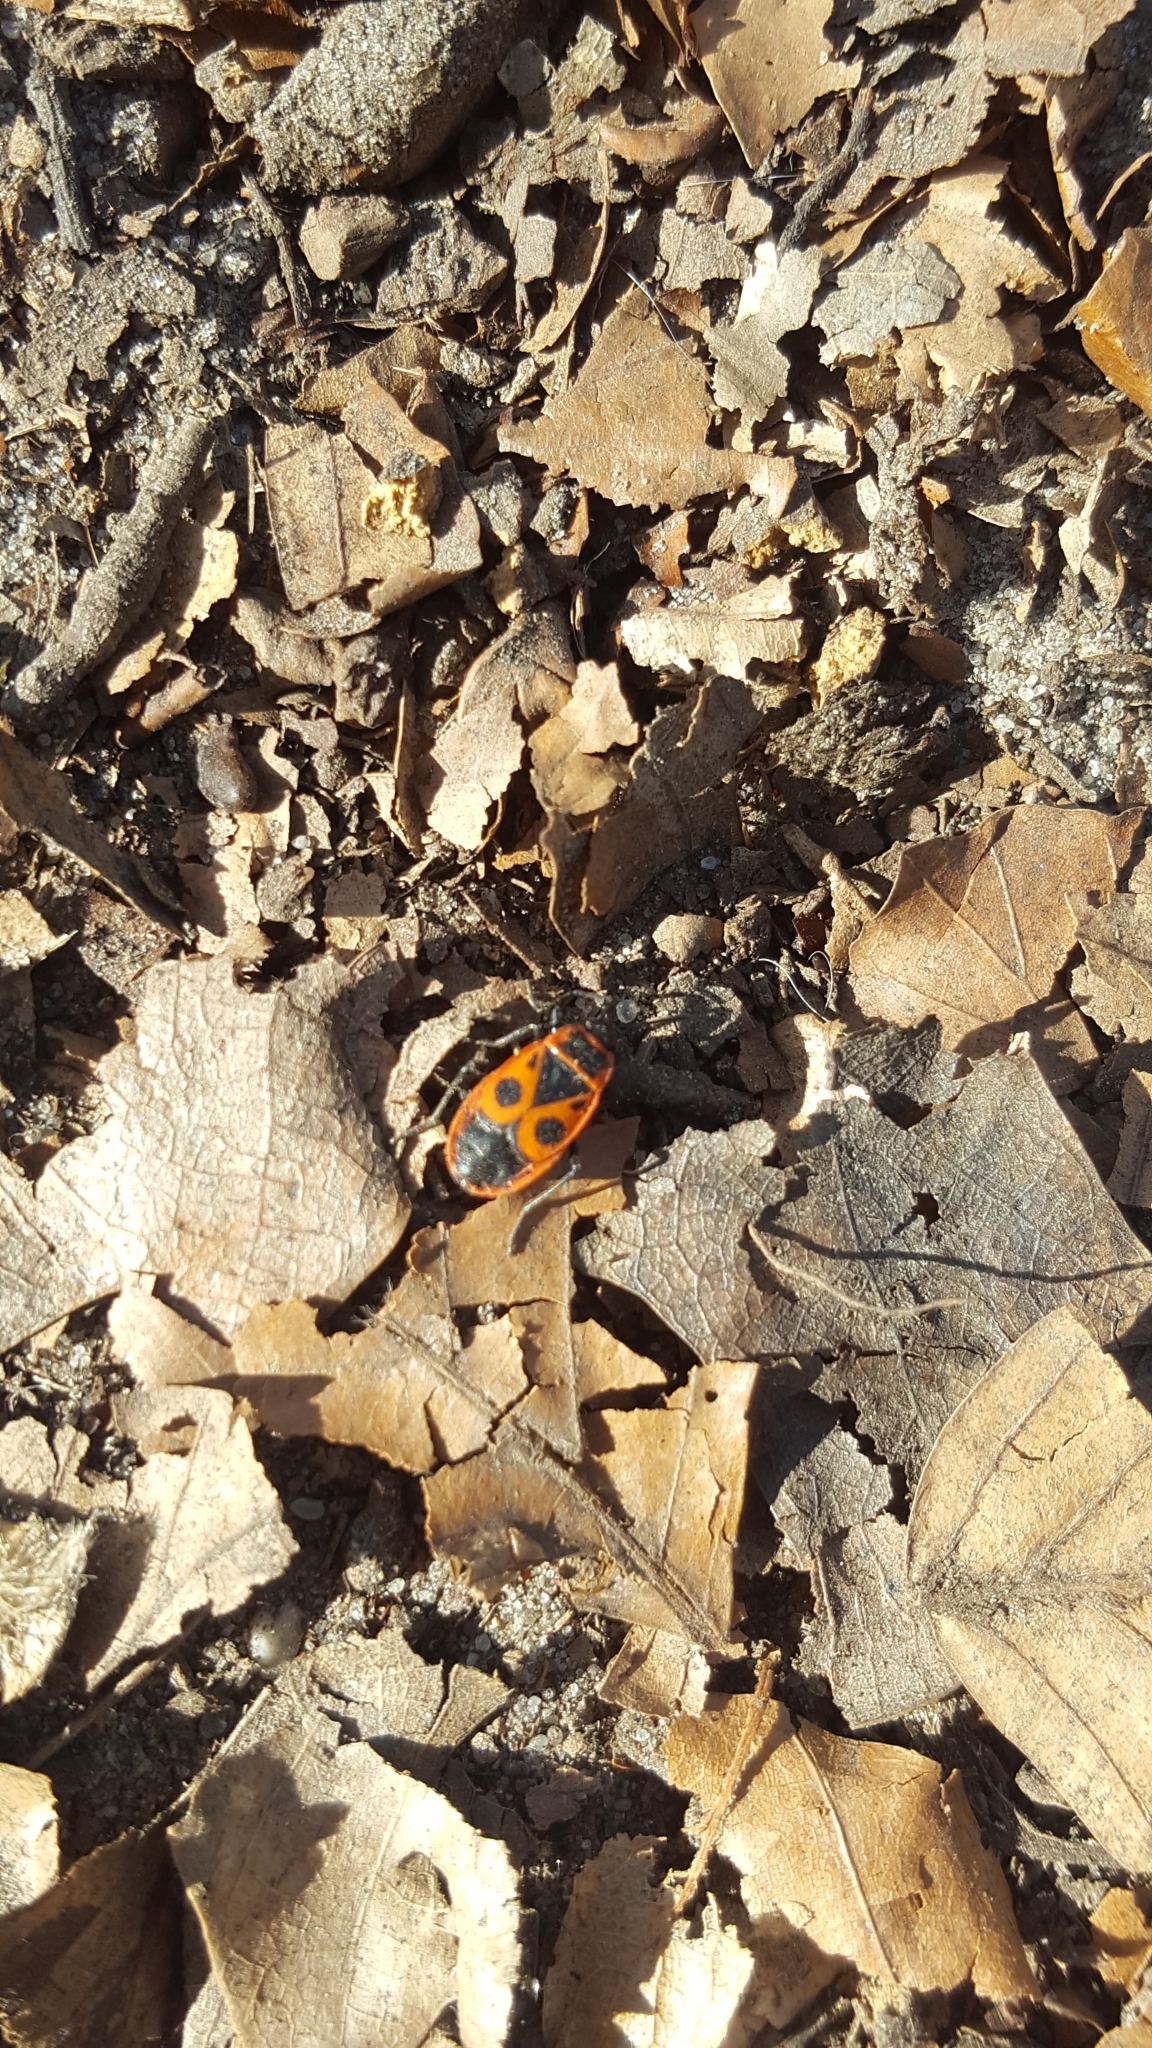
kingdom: Animalia
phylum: Arthropoda
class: Insecta
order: Hemiptera
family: Pyrrhocoridae
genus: Pyrrhocoris
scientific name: Pyrrhocoris apterus
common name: Firebug
